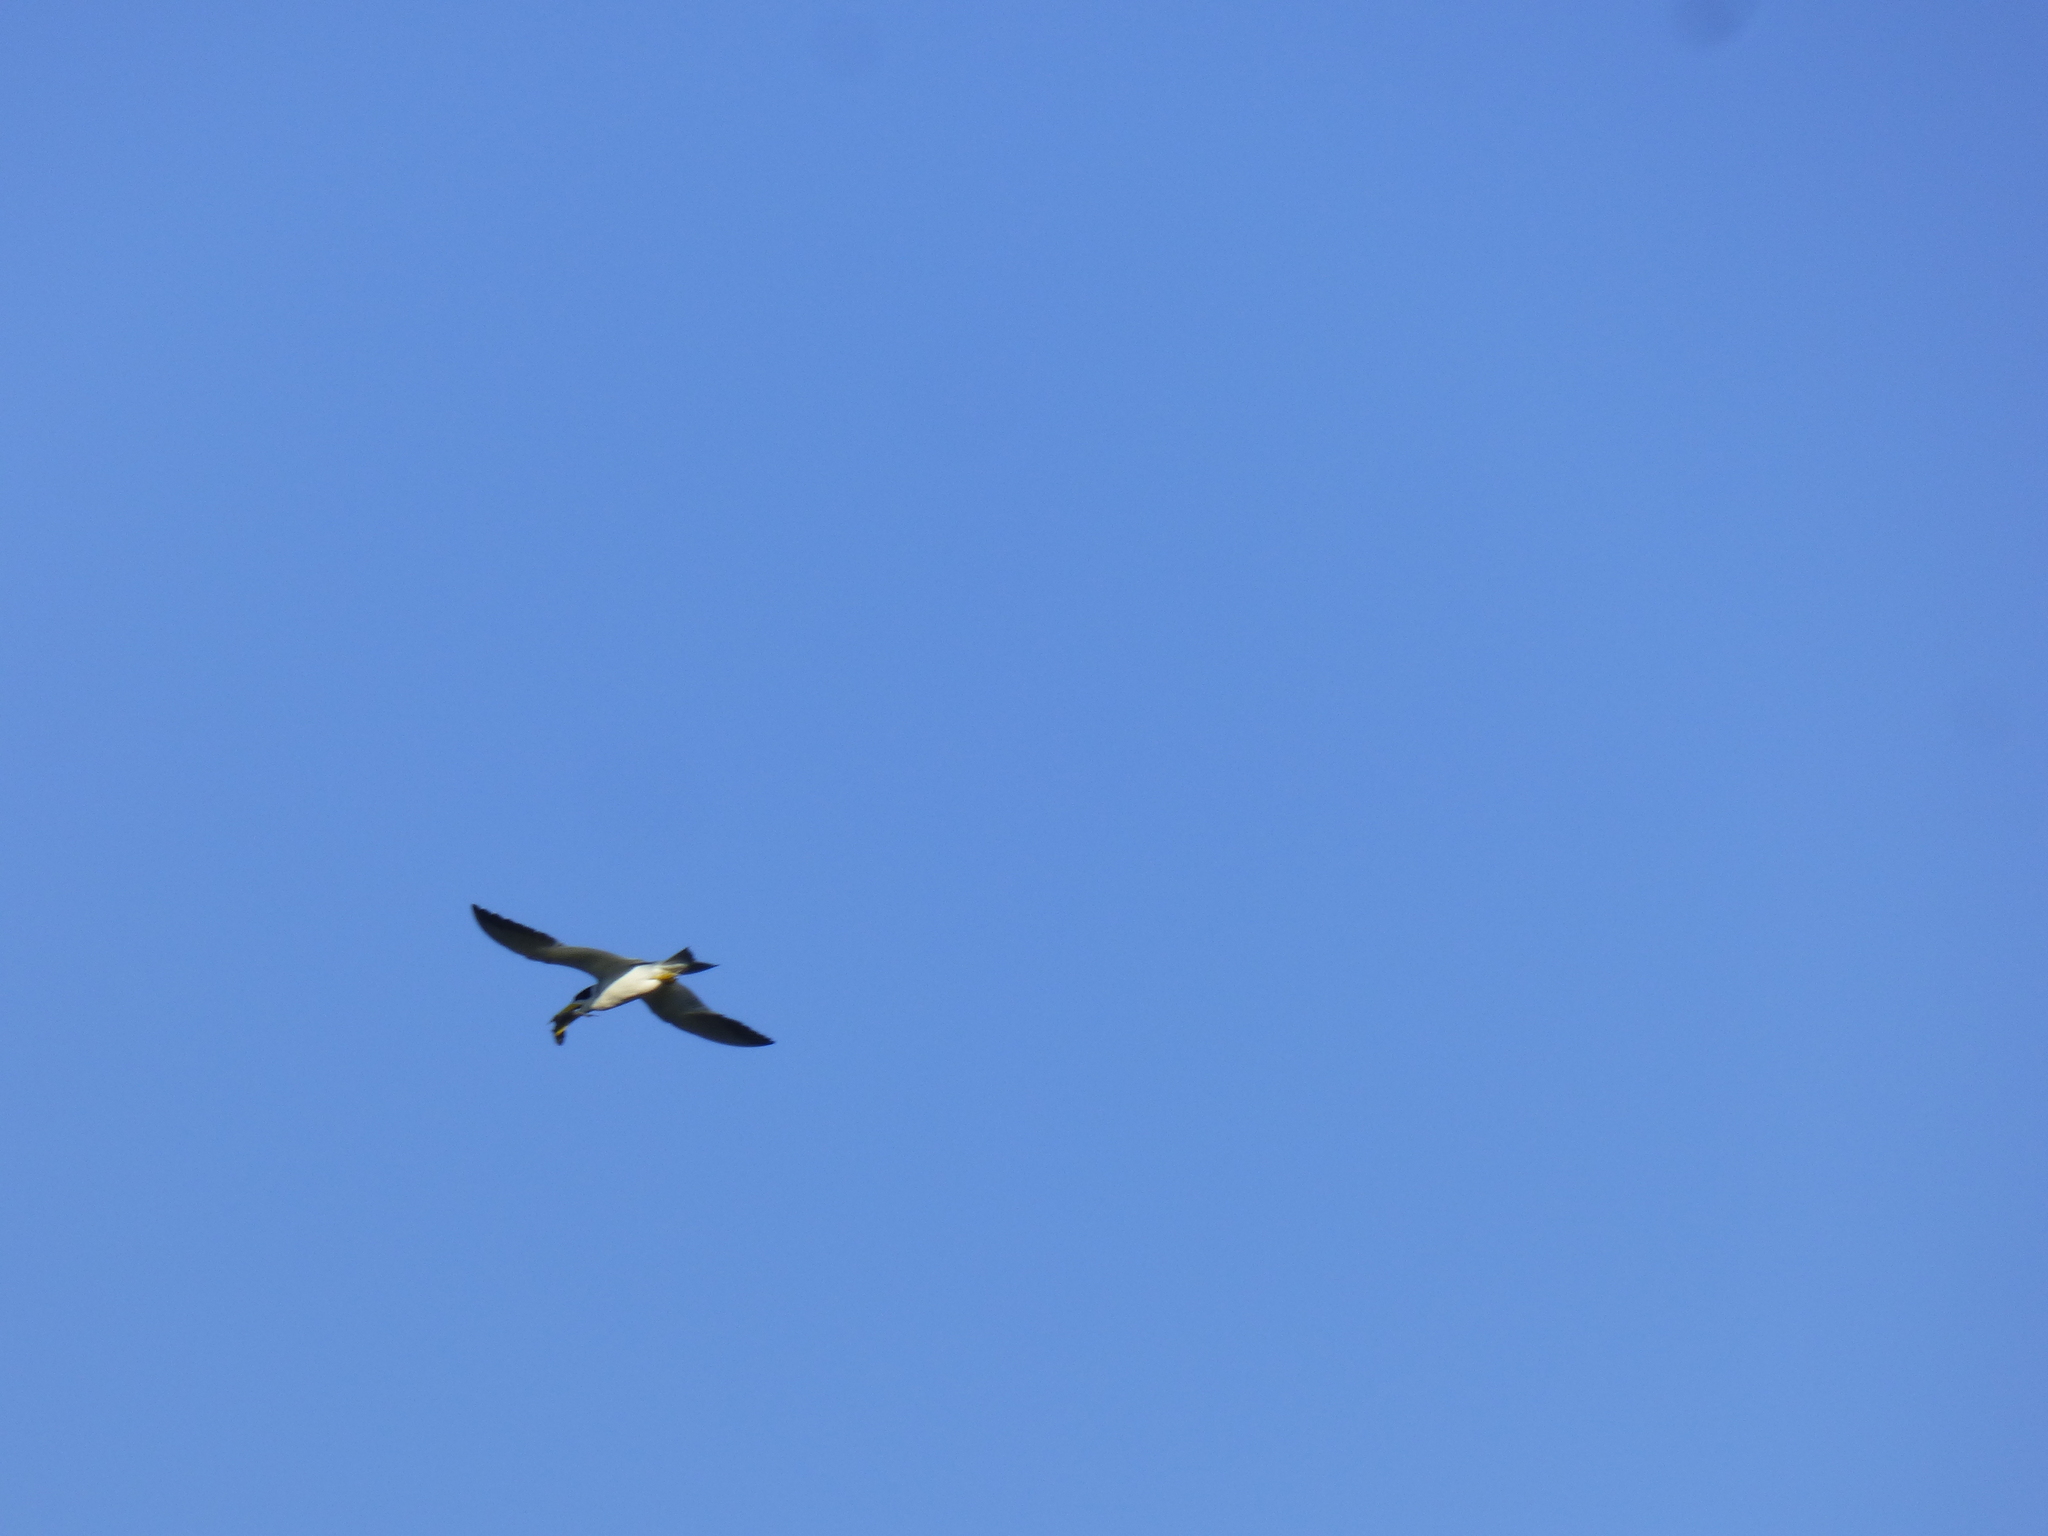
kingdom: Animalia
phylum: Chordata
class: Aves
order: Charadriiformes
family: Laridae
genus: Phaetusa
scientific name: Phaetusa simplex
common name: Large-billed tern
